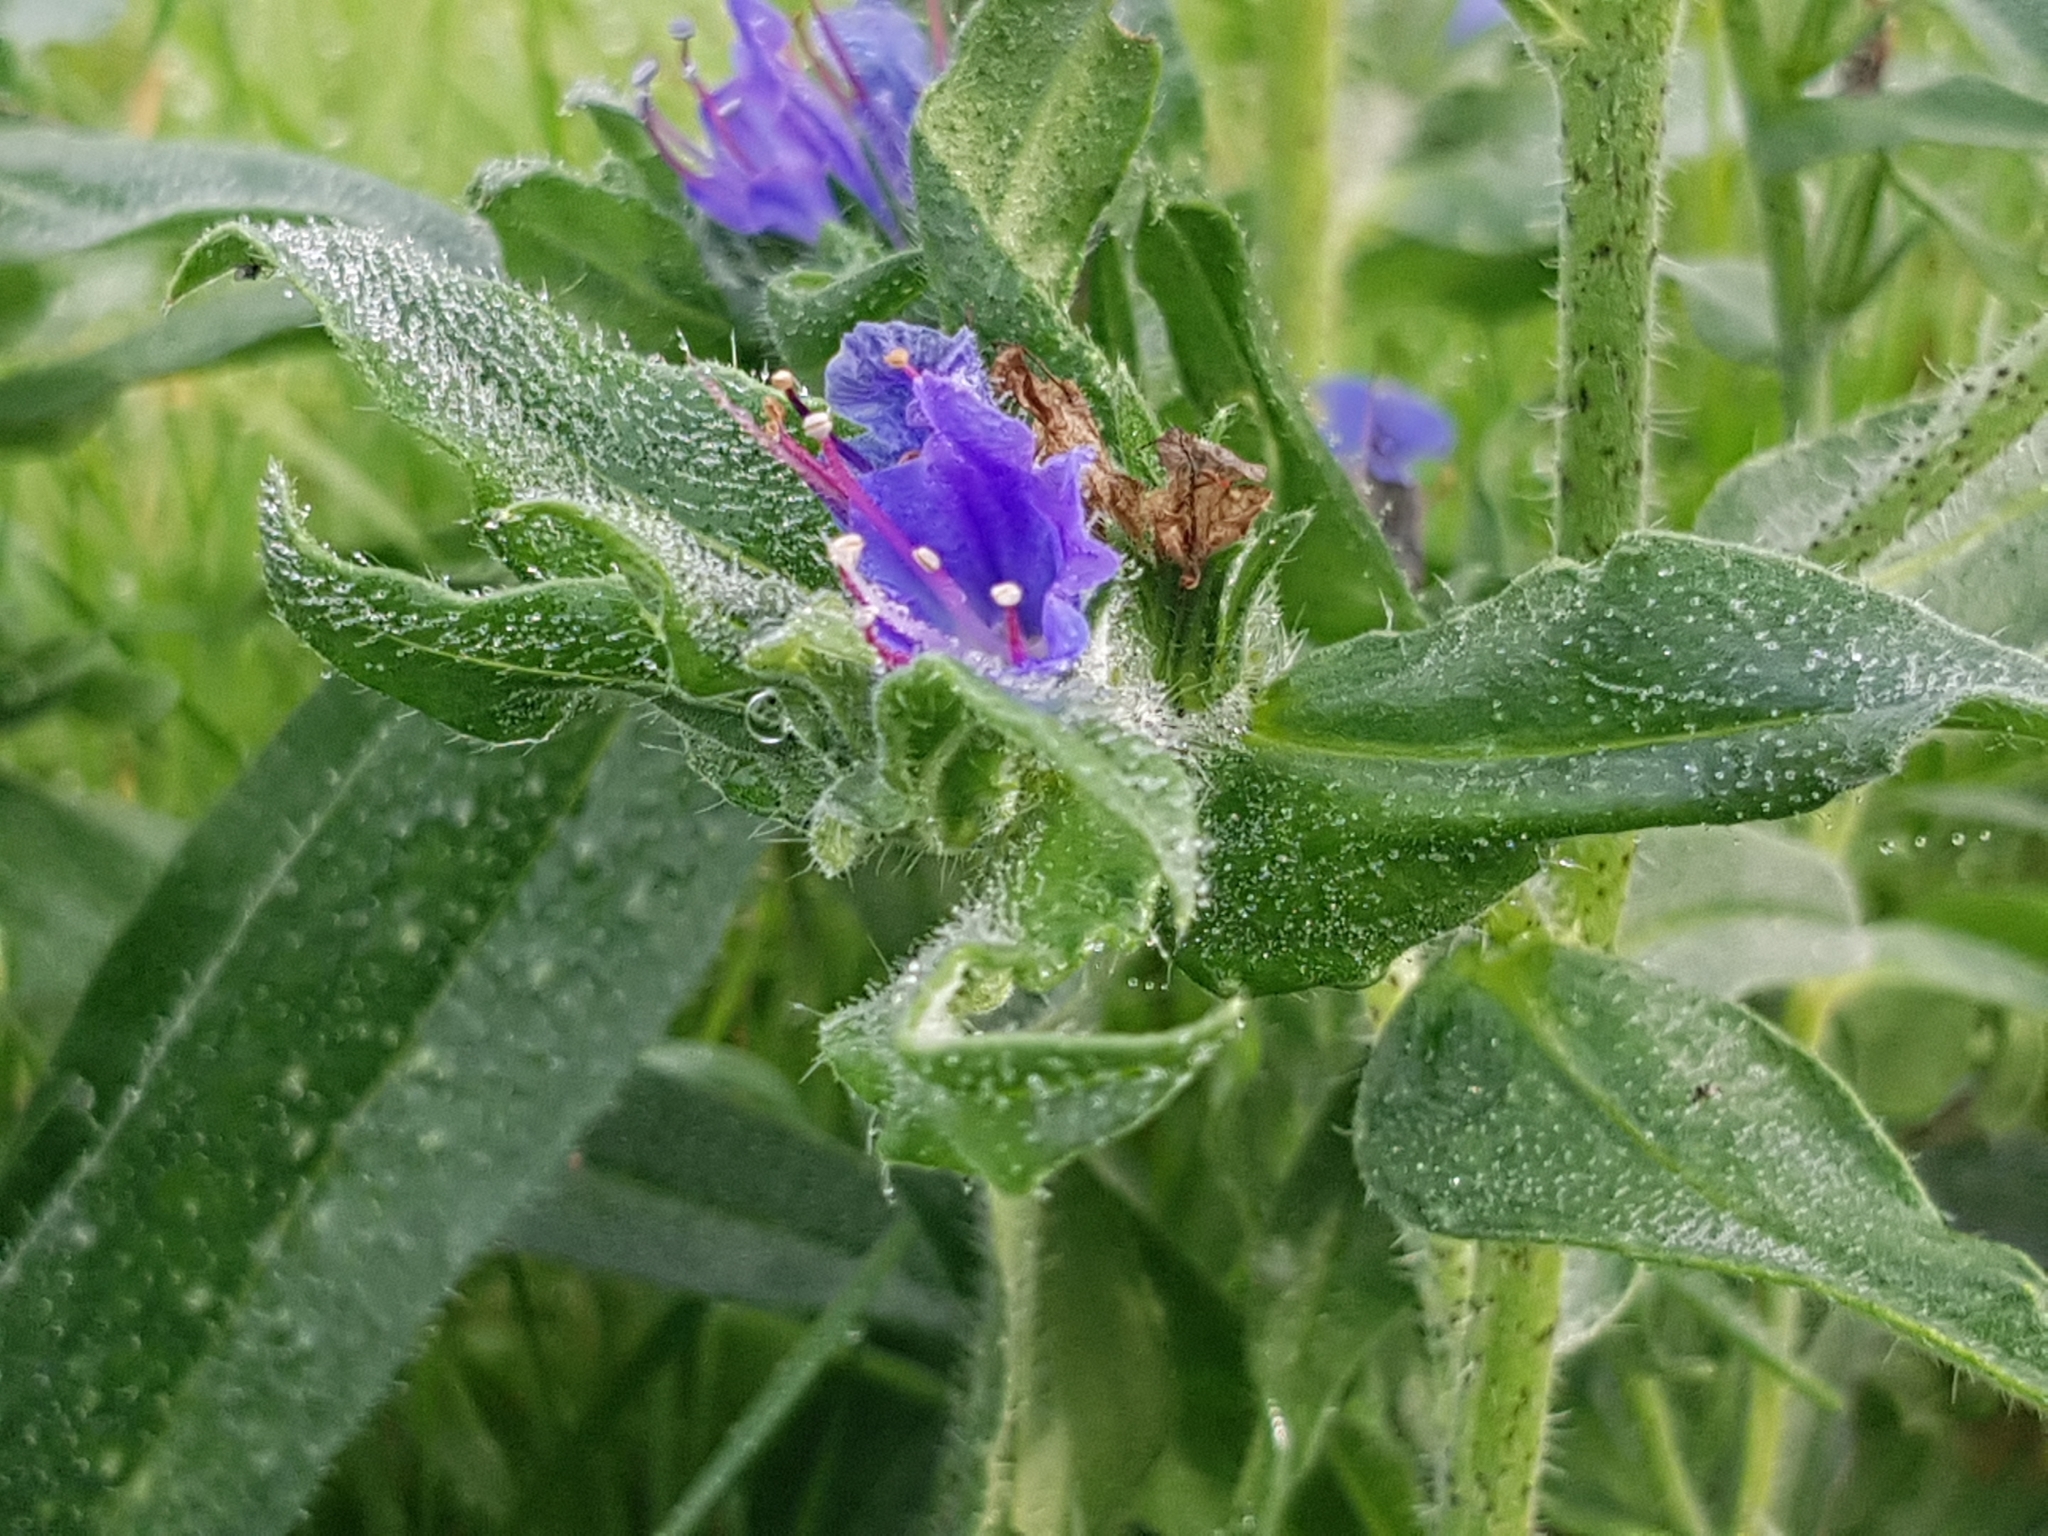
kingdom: Plantae
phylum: Tracheophyta
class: Magnoliopsida
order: Boraginales
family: Boraginaceae
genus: Echium
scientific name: Echium vulgare
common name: Common viper's bugloss
